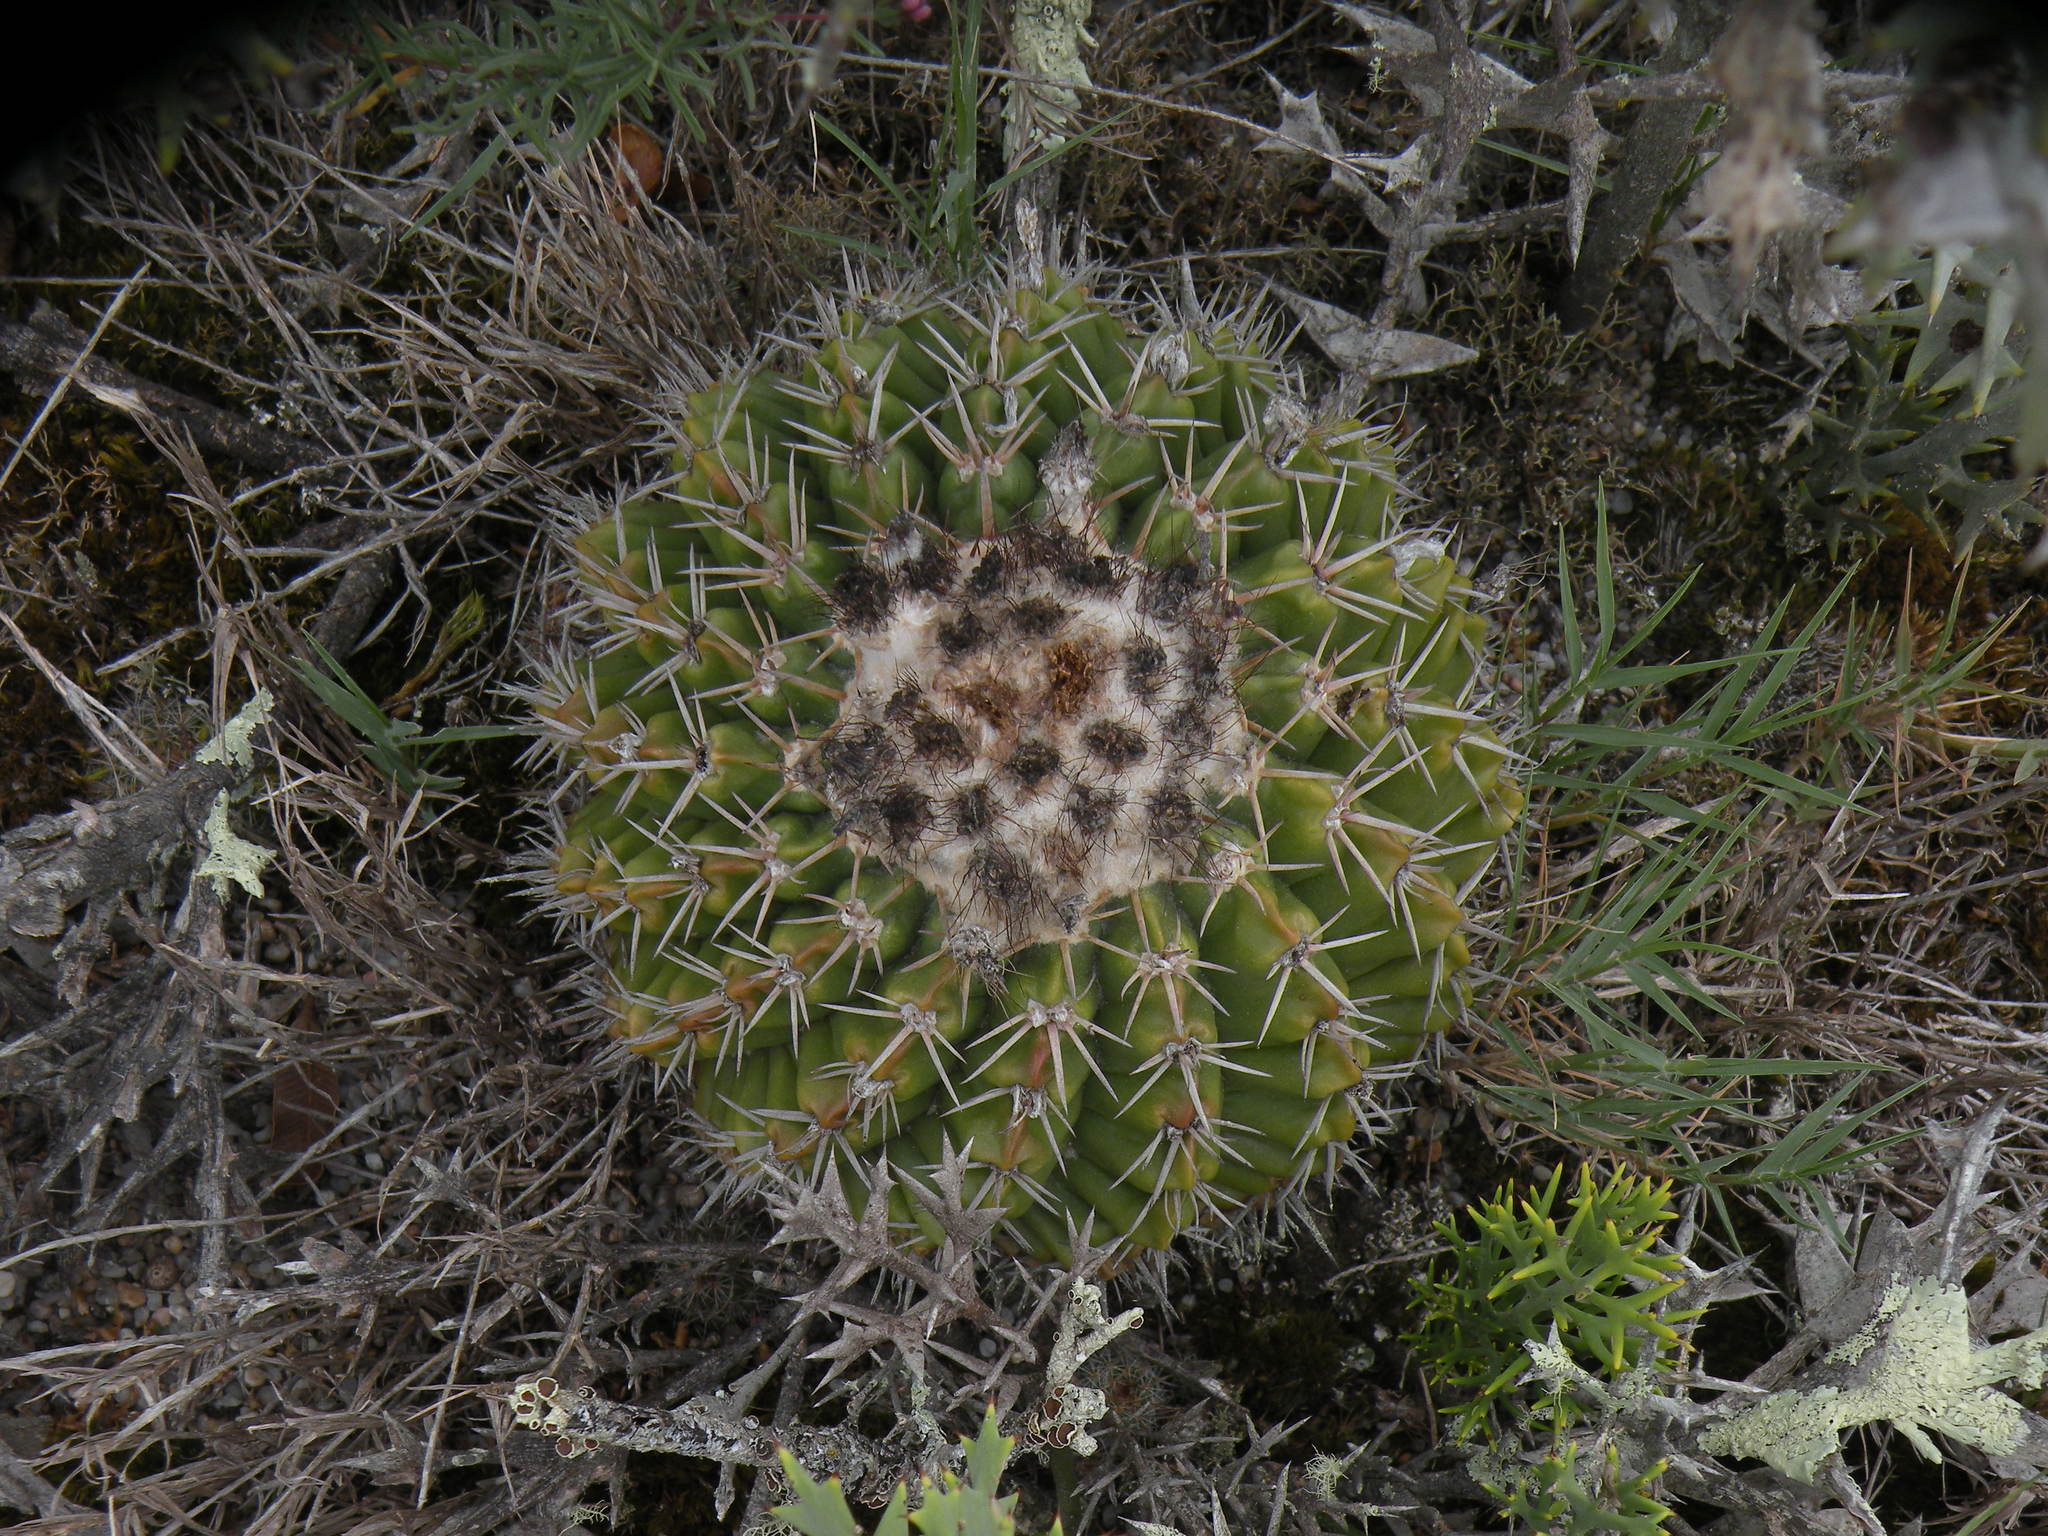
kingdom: Plantae
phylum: Tracheophyta
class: Magnoliopsida
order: Caryophyllales
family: Cactaceae
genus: Parodia
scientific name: Parodia erinacea
